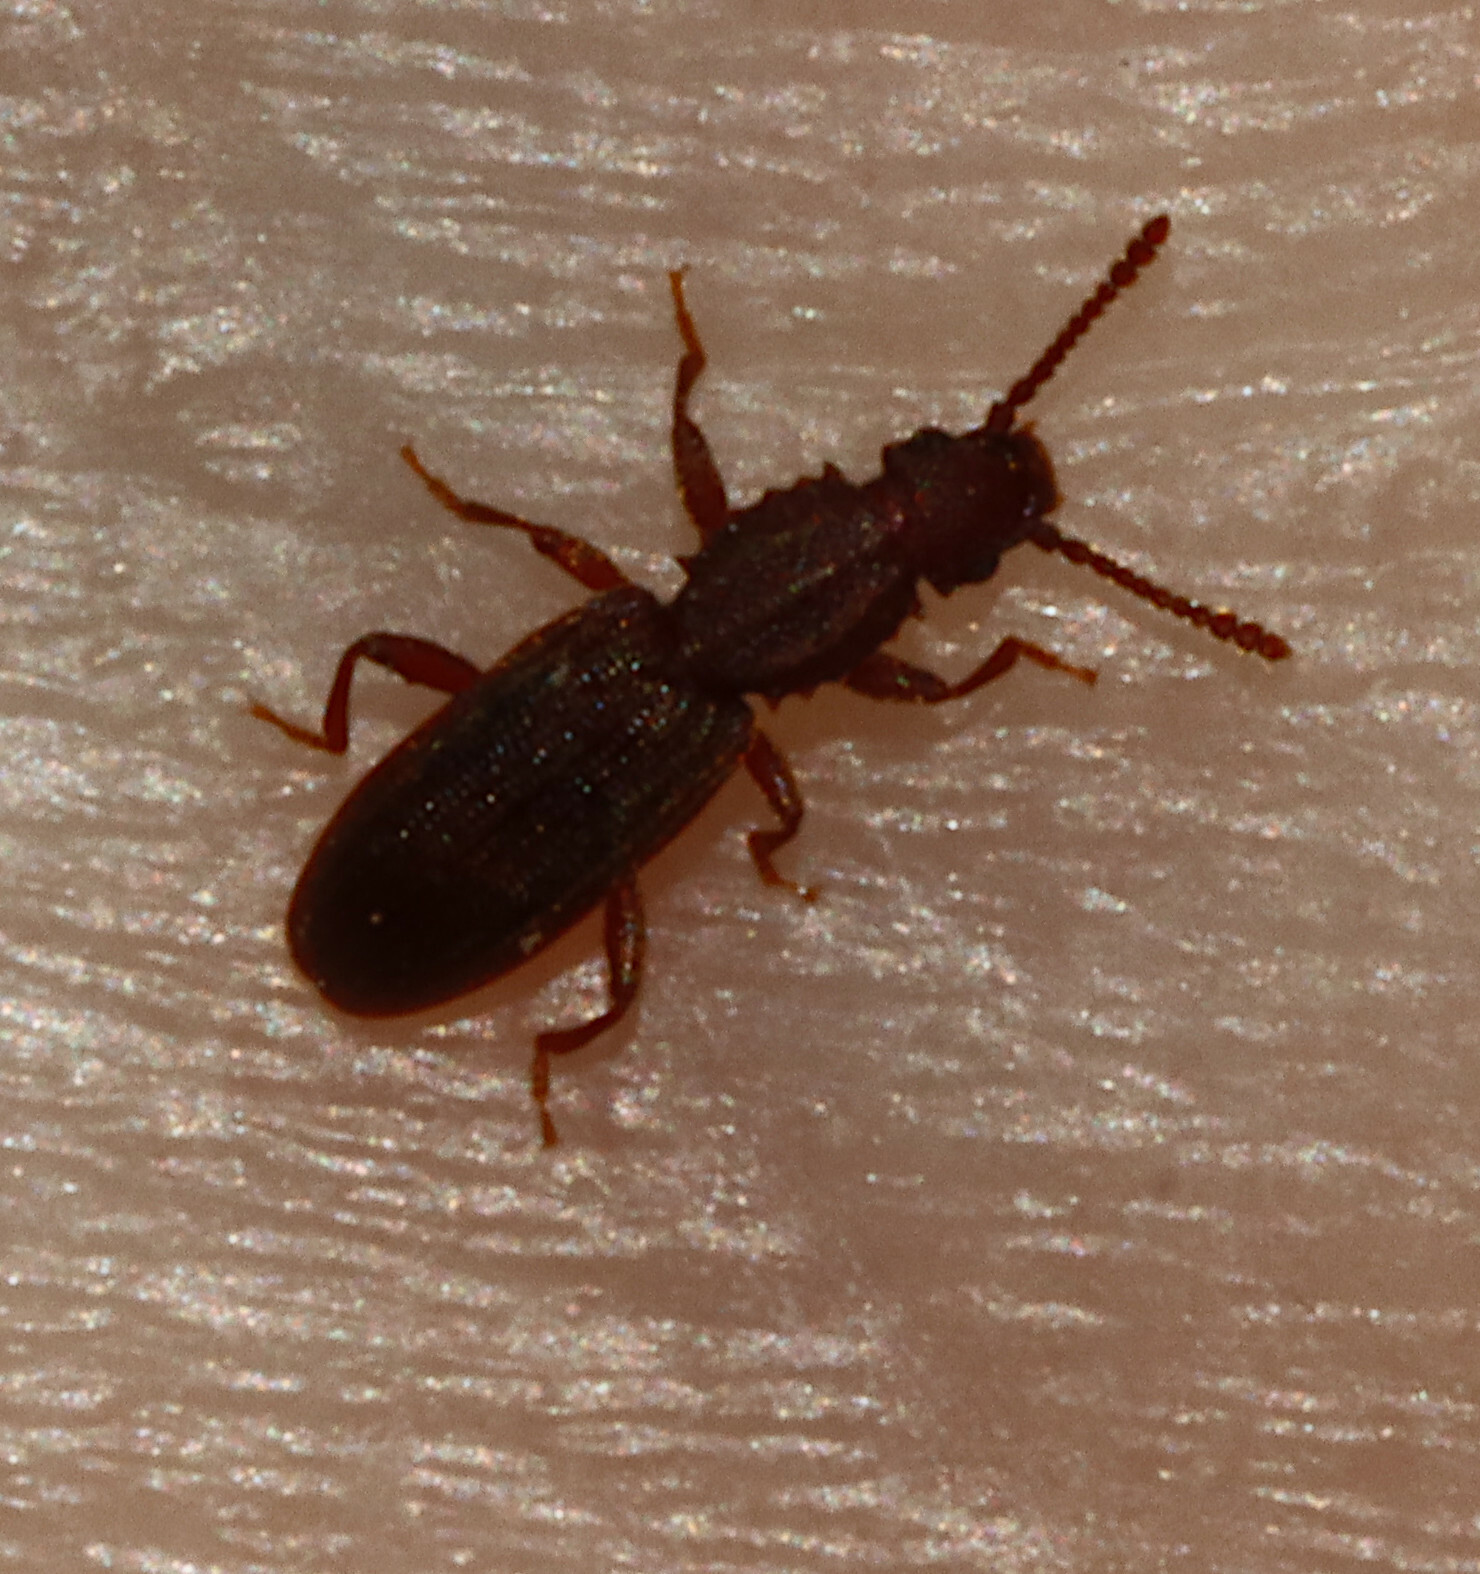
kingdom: Animalia
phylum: Arthropoda
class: Insecta
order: Coleoptera
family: Silvanidae
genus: Oryzaephilus
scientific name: Oryzaephilus surinamensis
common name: Sawtoothed grain beetle
